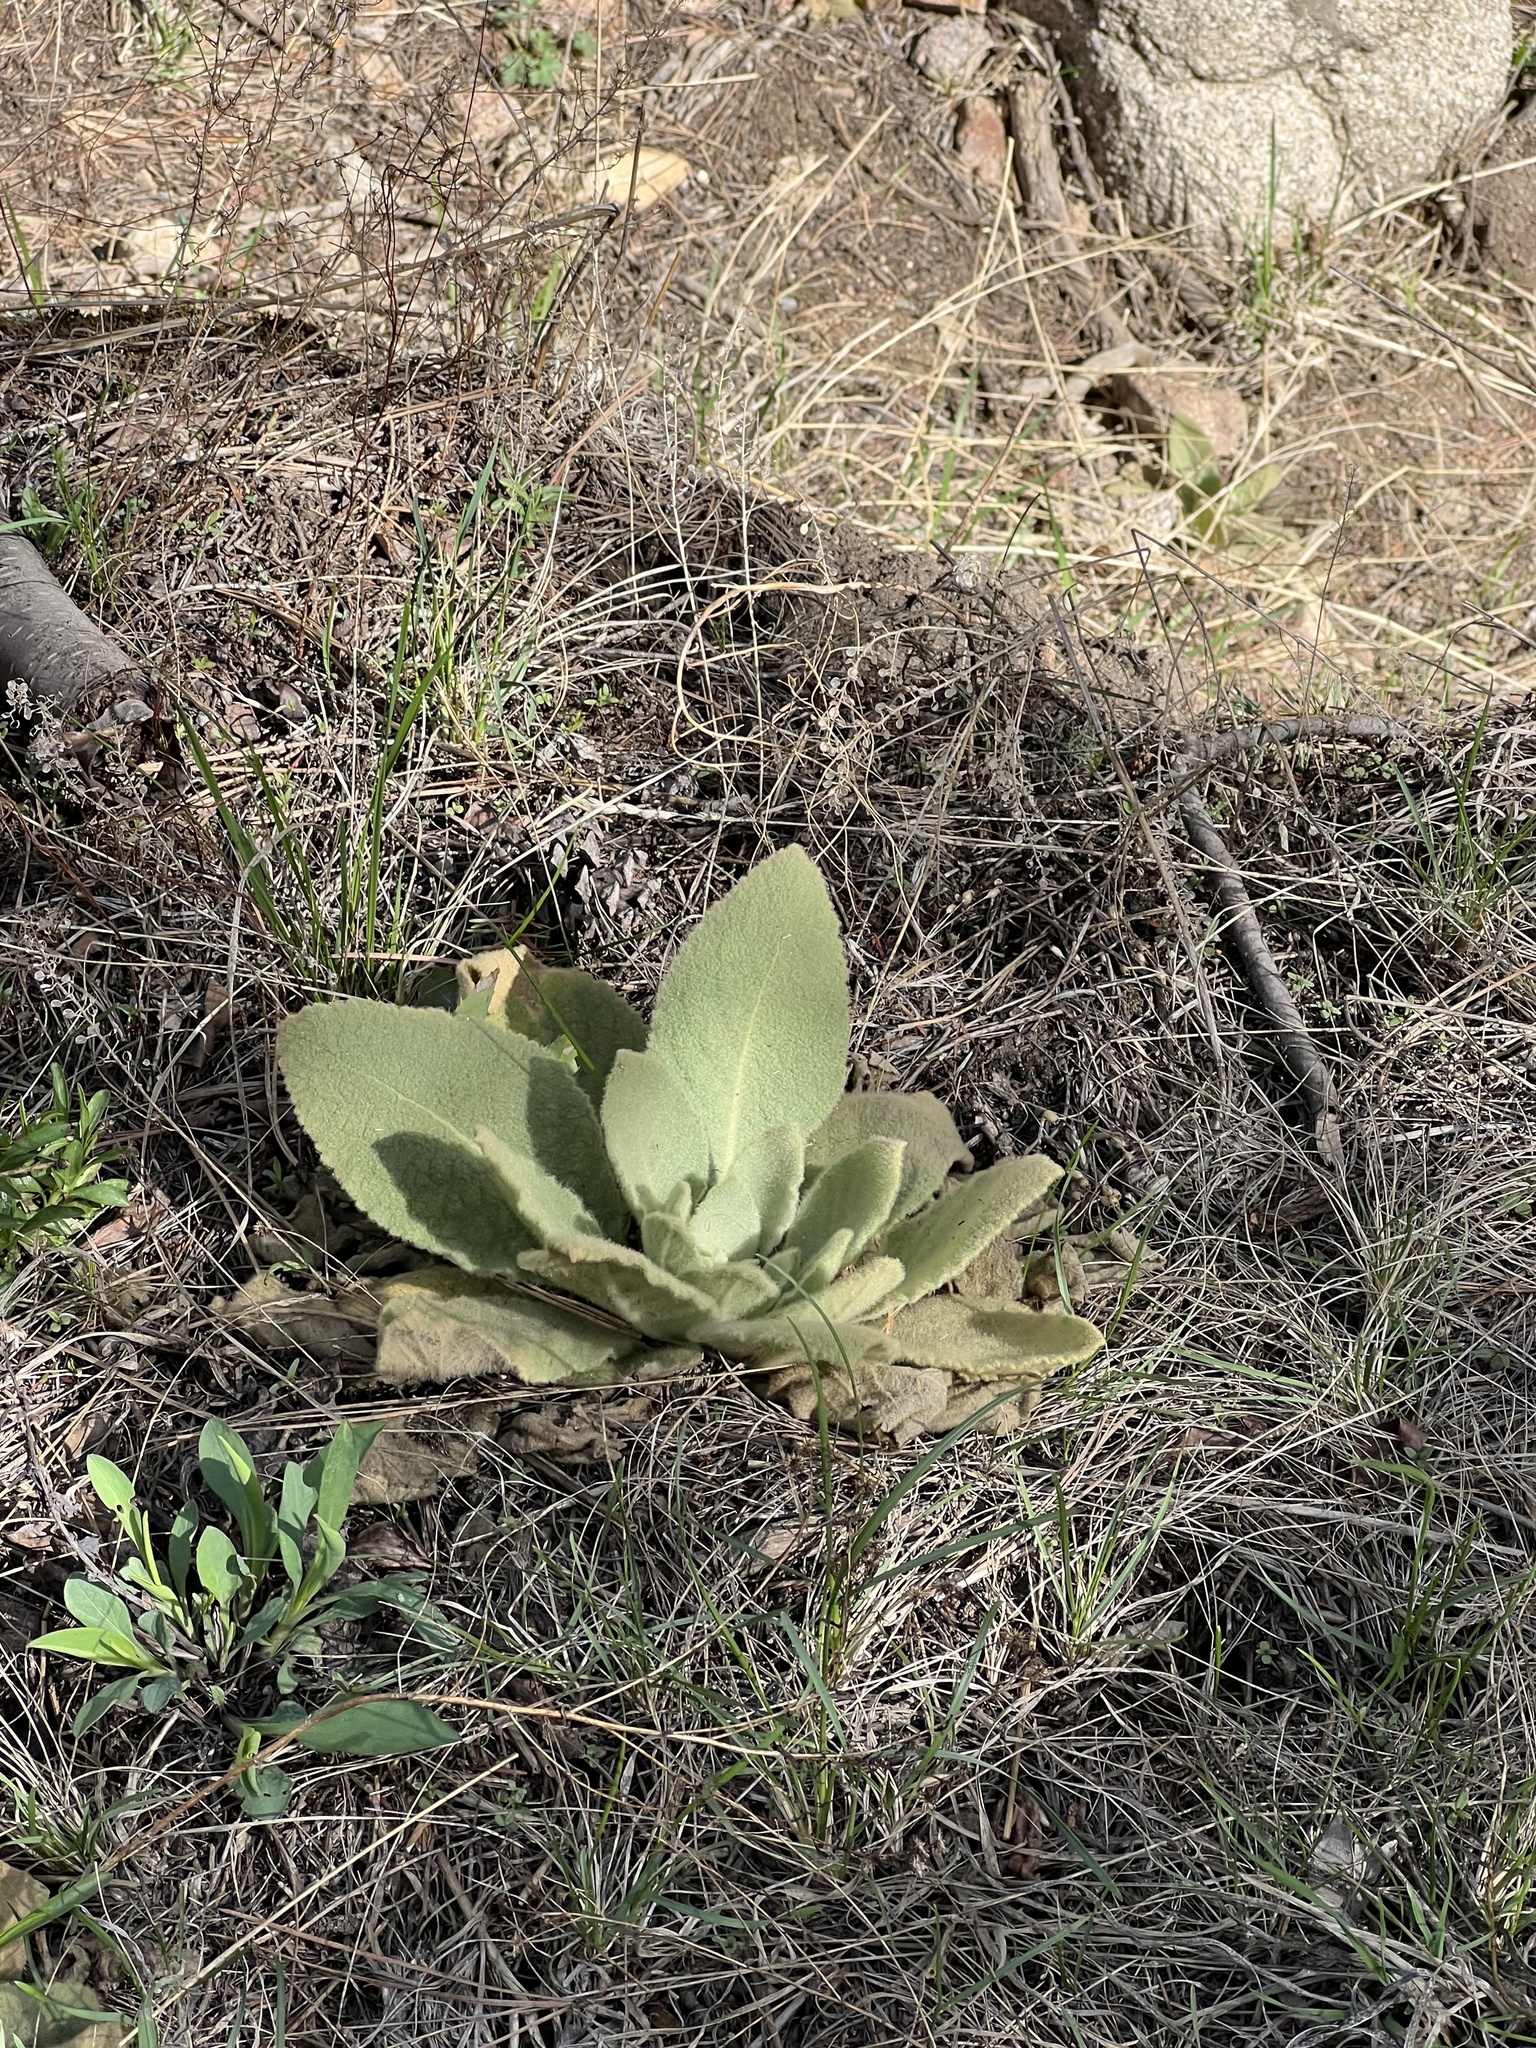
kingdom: Plantae
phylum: Tracheophyta
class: Magnoliopsida
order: Lamiales
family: Scrophulariaceae
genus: Verbascum
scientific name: Verbascum thapsus
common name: Common mullein
